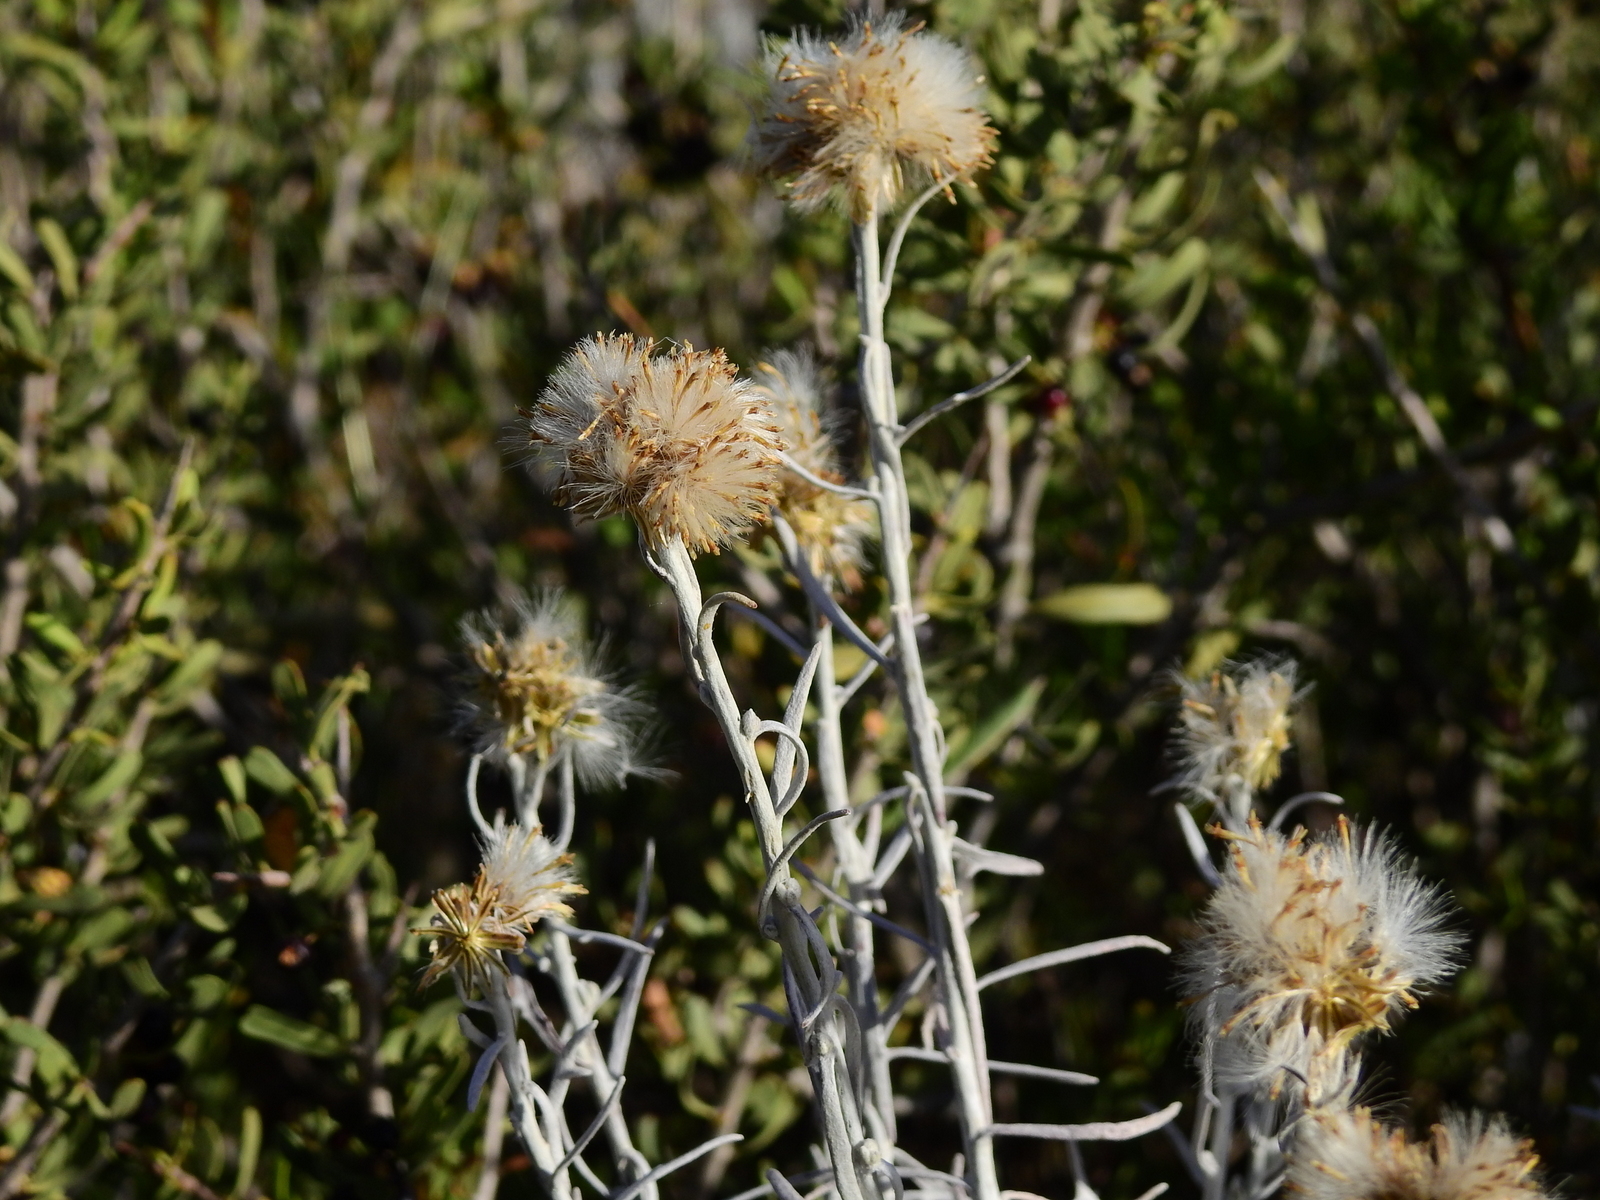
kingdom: Plantae
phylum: Tracheophyta
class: Magnoliopsida
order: Asterales
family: Asteraceae
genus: Senecio
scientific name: Senecio filaginoides
